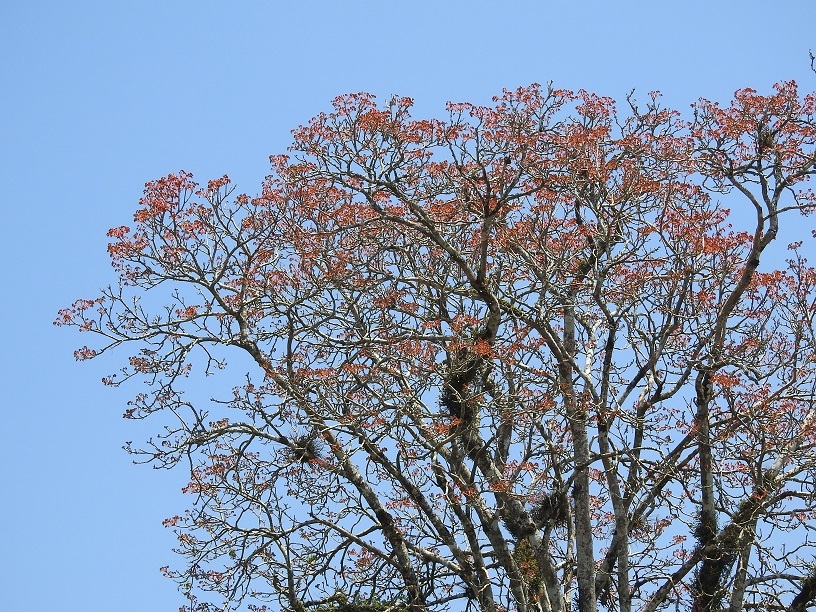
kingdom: Plantae
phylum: Tracheophyta
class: Magnoliopsida
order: Malvales
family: Malvaceae
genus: Bernoullia
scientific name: Bernoullia flammea
